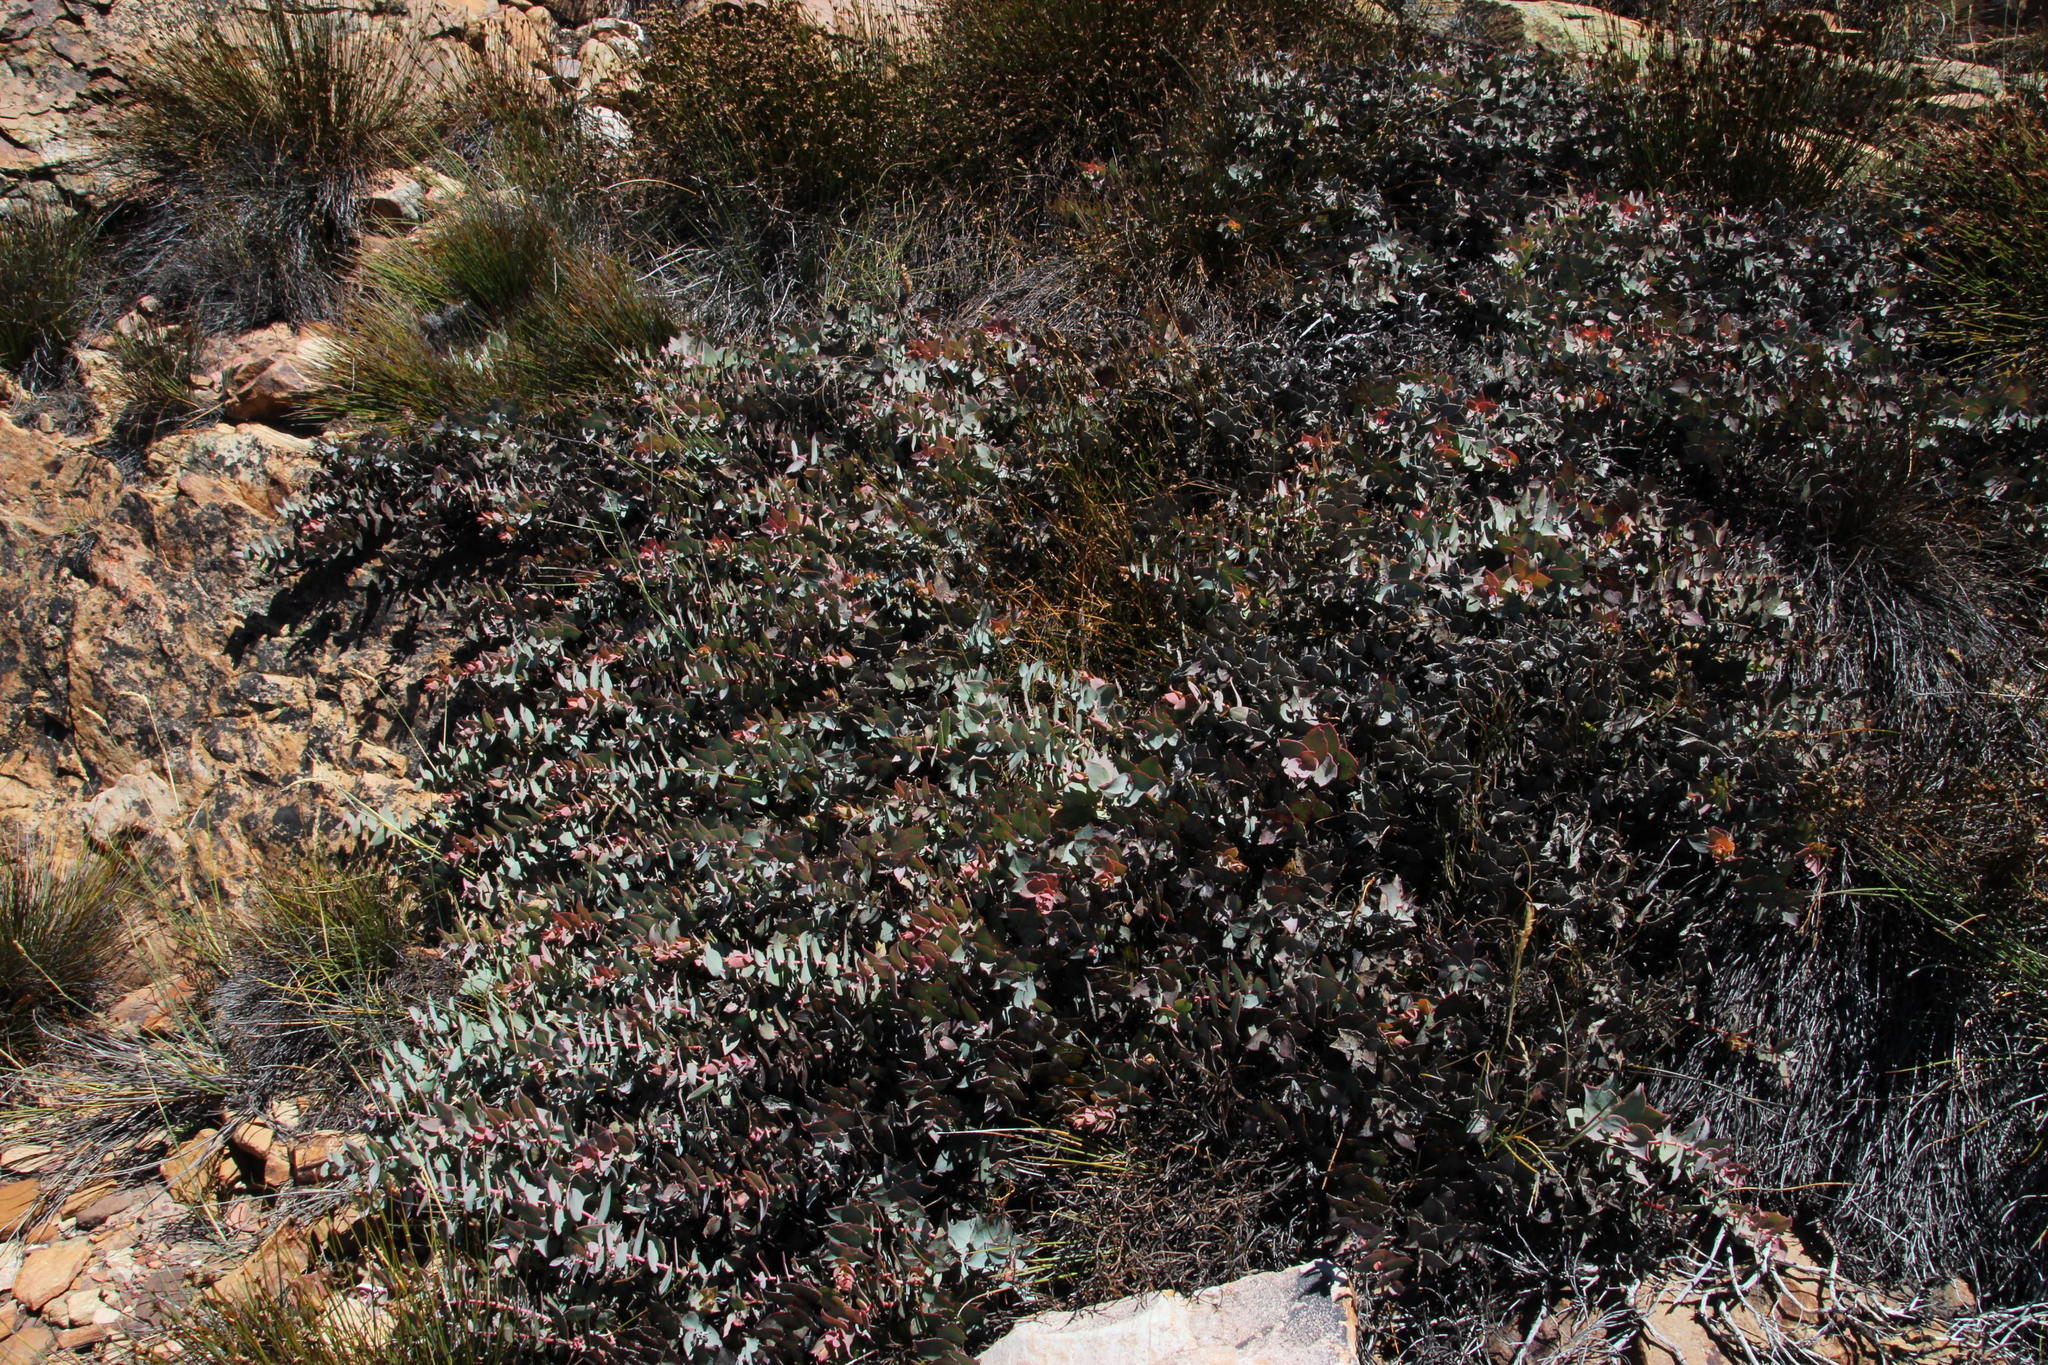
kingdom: Plantae
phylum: Tracheophyta
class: Magnoliopsida
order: Proteales
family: Proteaceae
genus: Protea
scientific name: Protea amplexicaulis
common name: Clasping-leaf sugarbush
